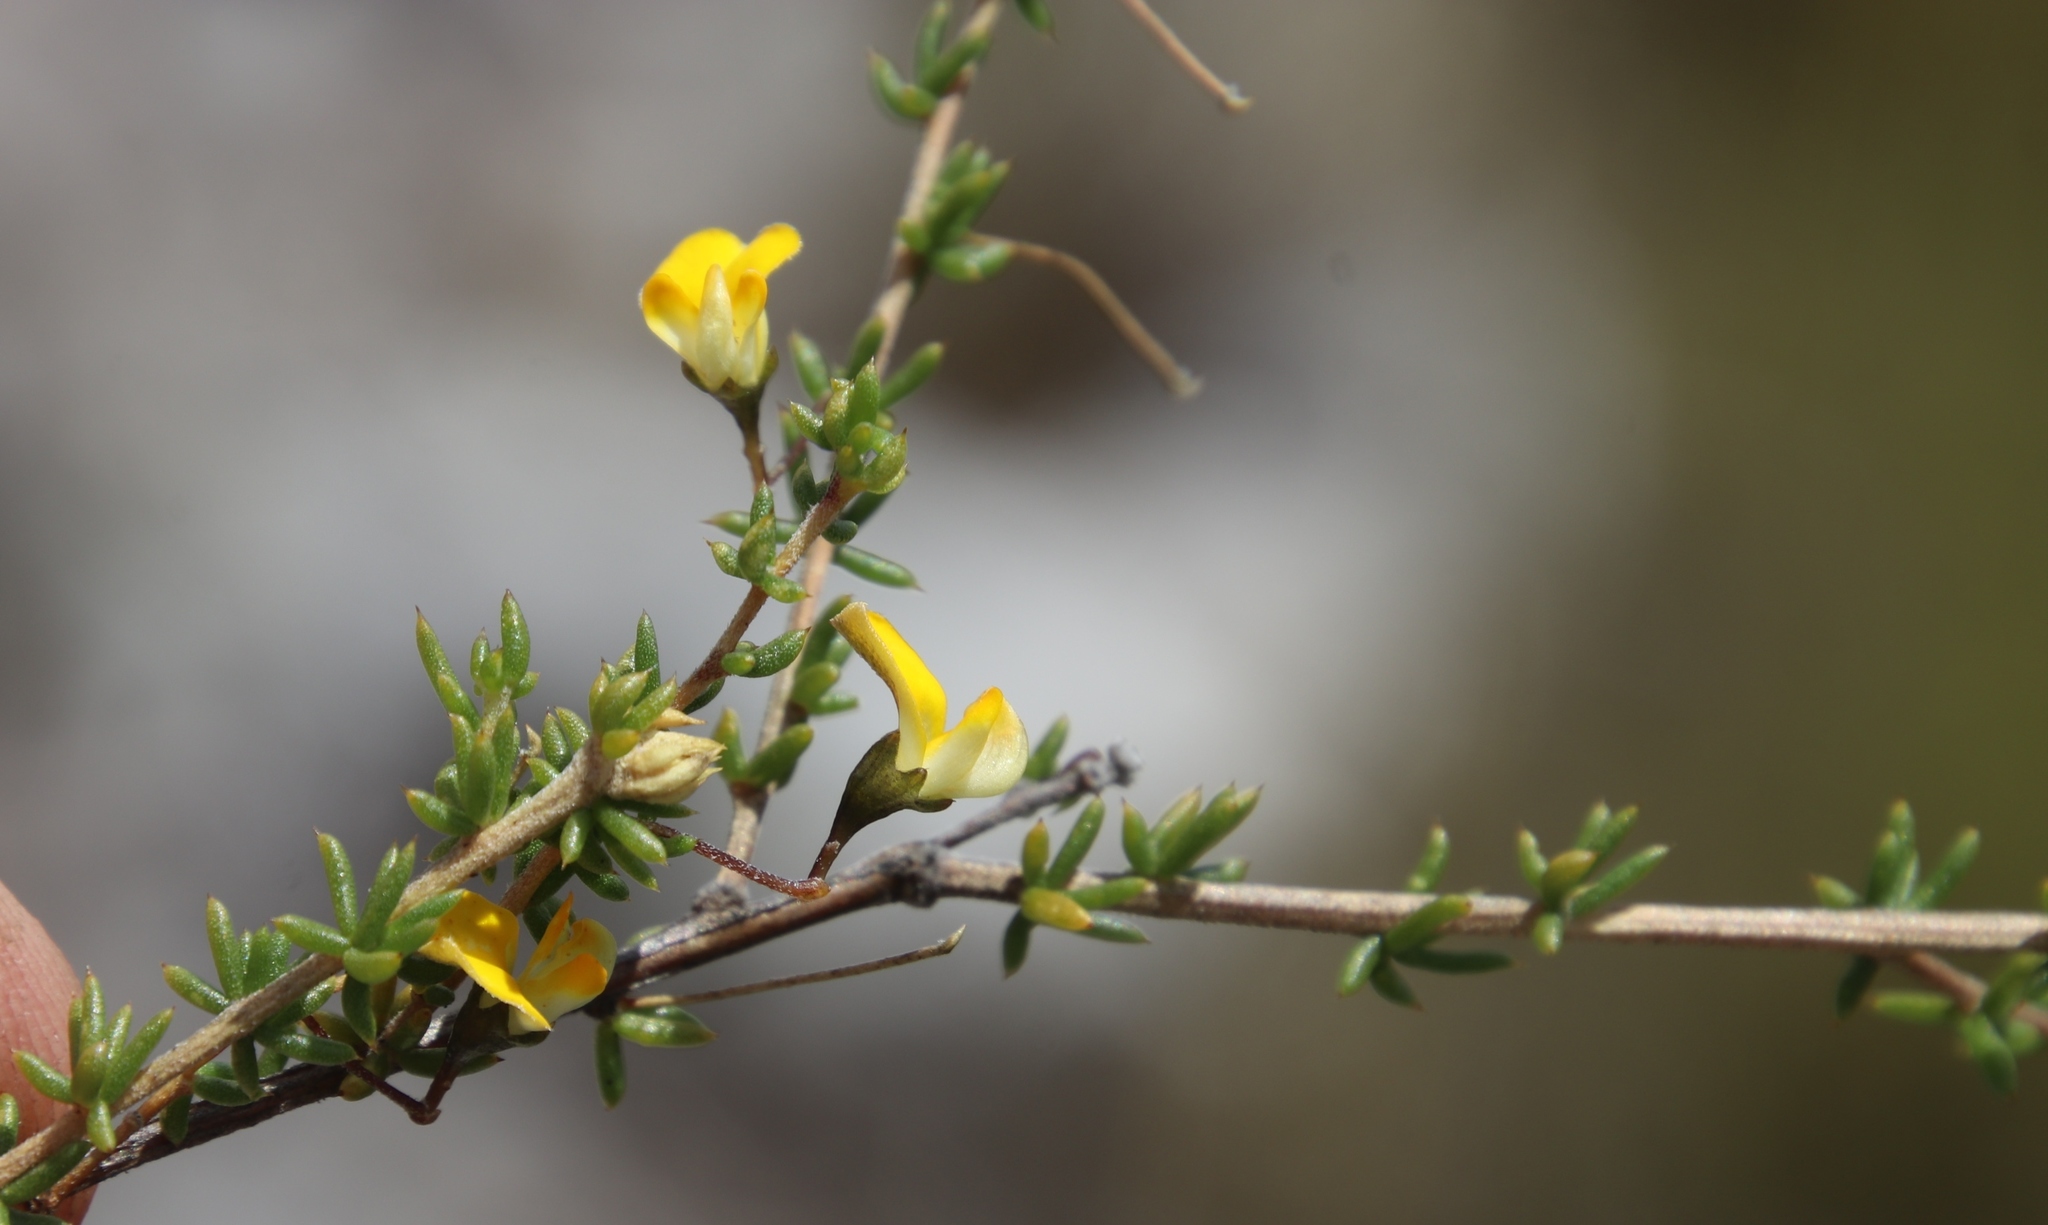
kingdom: Plantae
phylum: Tracheophyta
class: Magnoliopsida
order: Fabales
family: Fabaceae
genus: Aspalathus
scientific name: Aspalathus serpens
